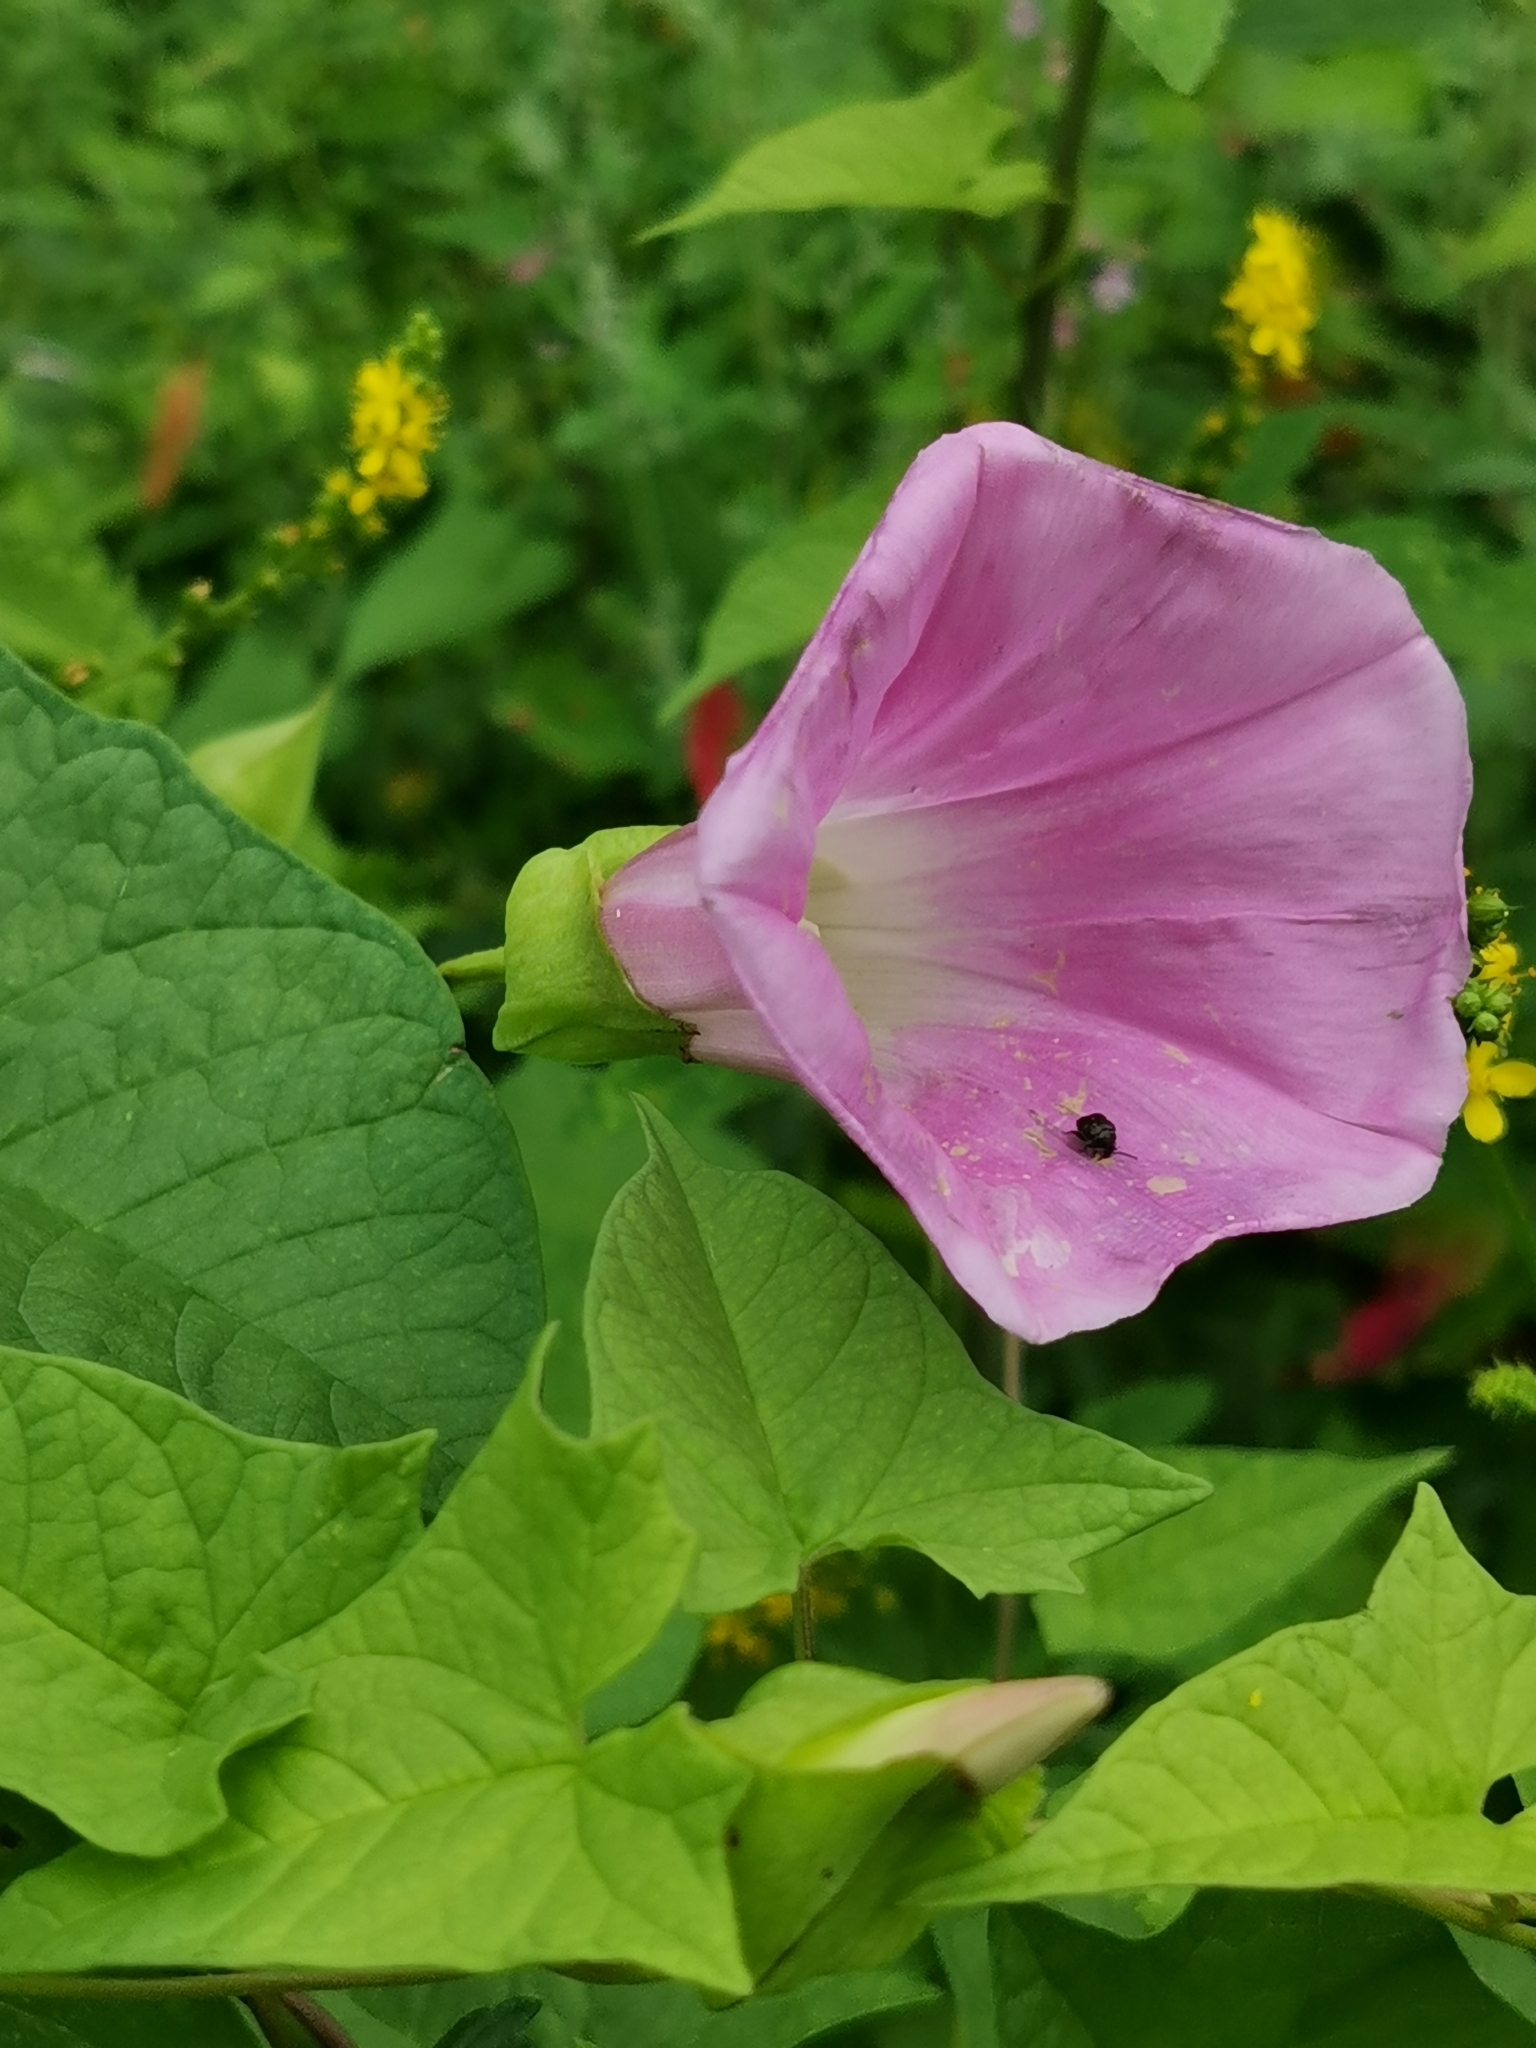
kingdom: Plantae
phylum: Tracheophyta
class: Magnoliopsida
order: Solanales
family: Convolvulaceae
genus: Calystegia
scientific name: Calystegia sepium
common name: Hedge bindweed
